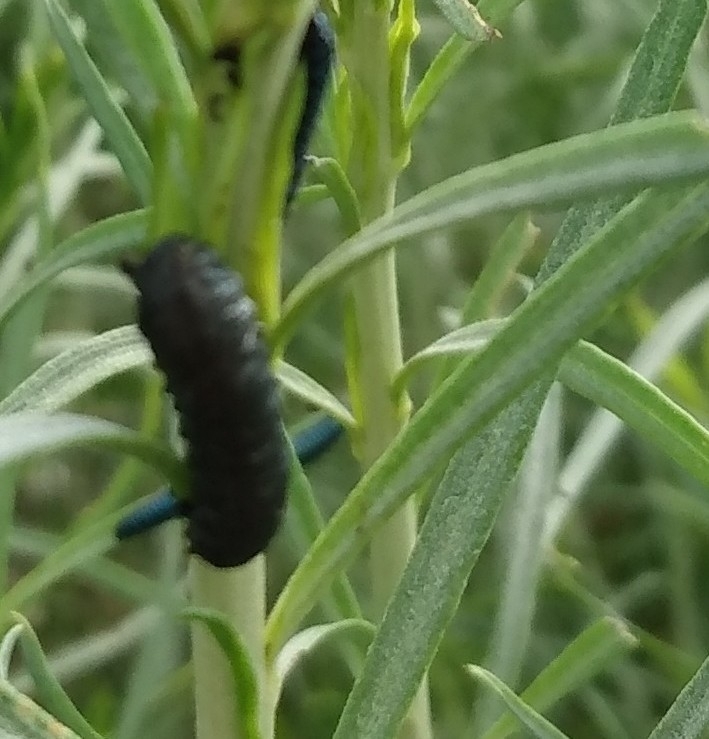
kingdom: Animalia
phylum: Arthropoda
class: Insecta
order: Coleoptera
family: Chrysomelidae
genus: Trirhabda
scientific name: Trirhabda nitidicollis
